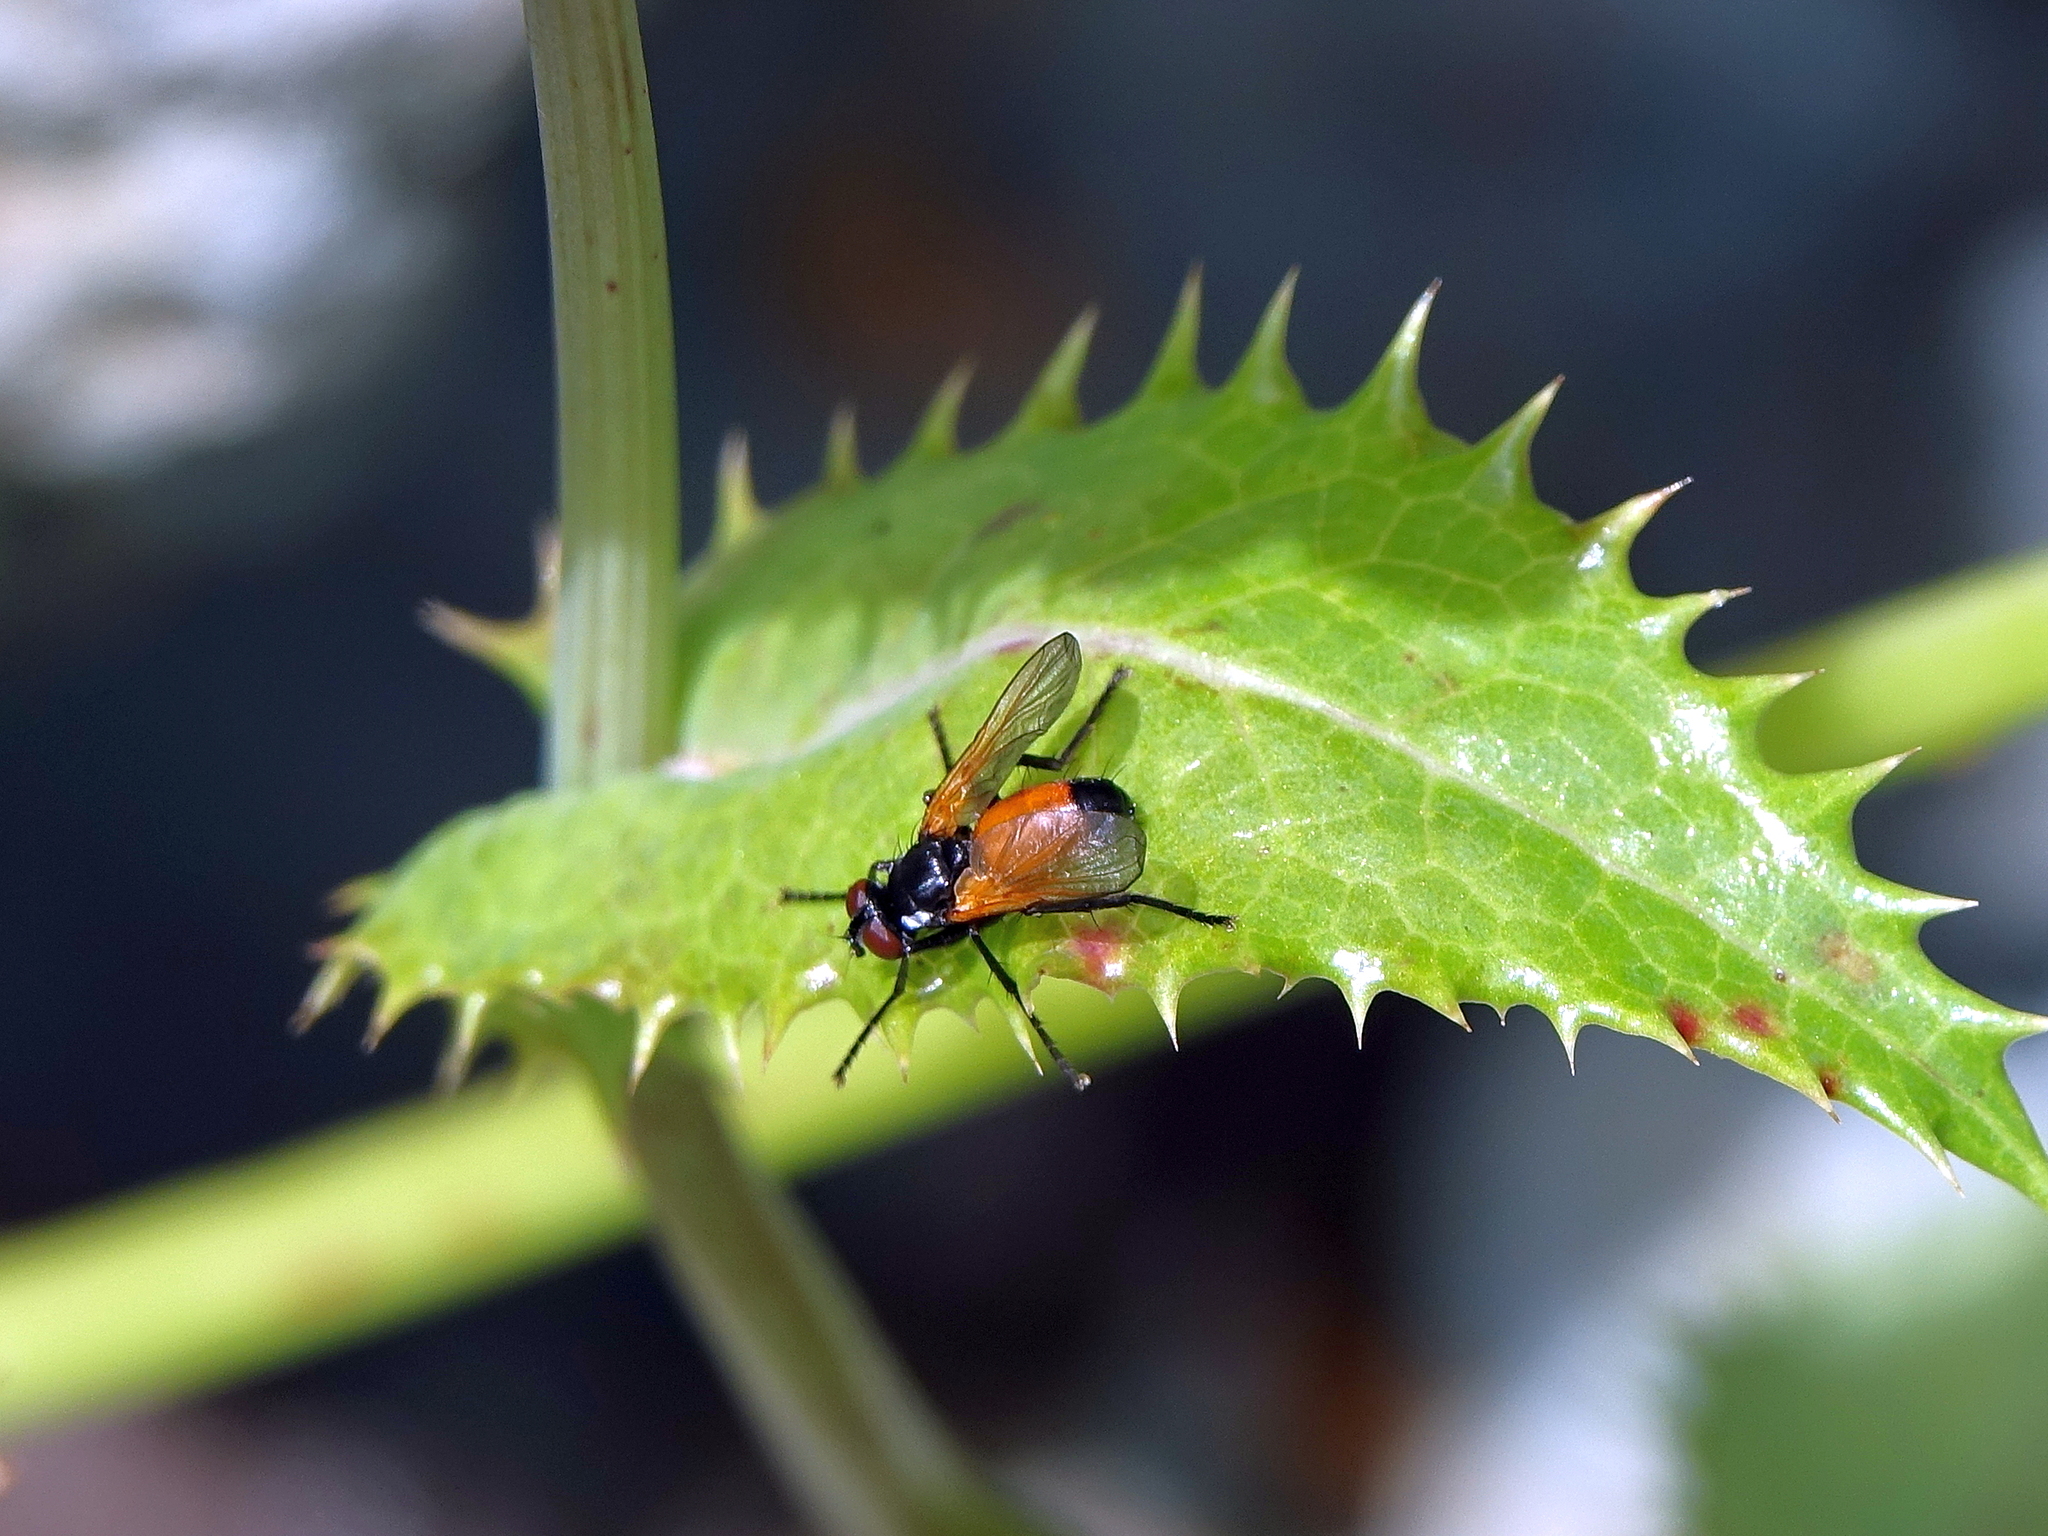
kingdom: Animalia
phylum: Arthropoda
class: Insecta
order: Diptera
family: Tachinidae
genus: Huttonobesseria
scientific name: Huttonobesseria verecunda
